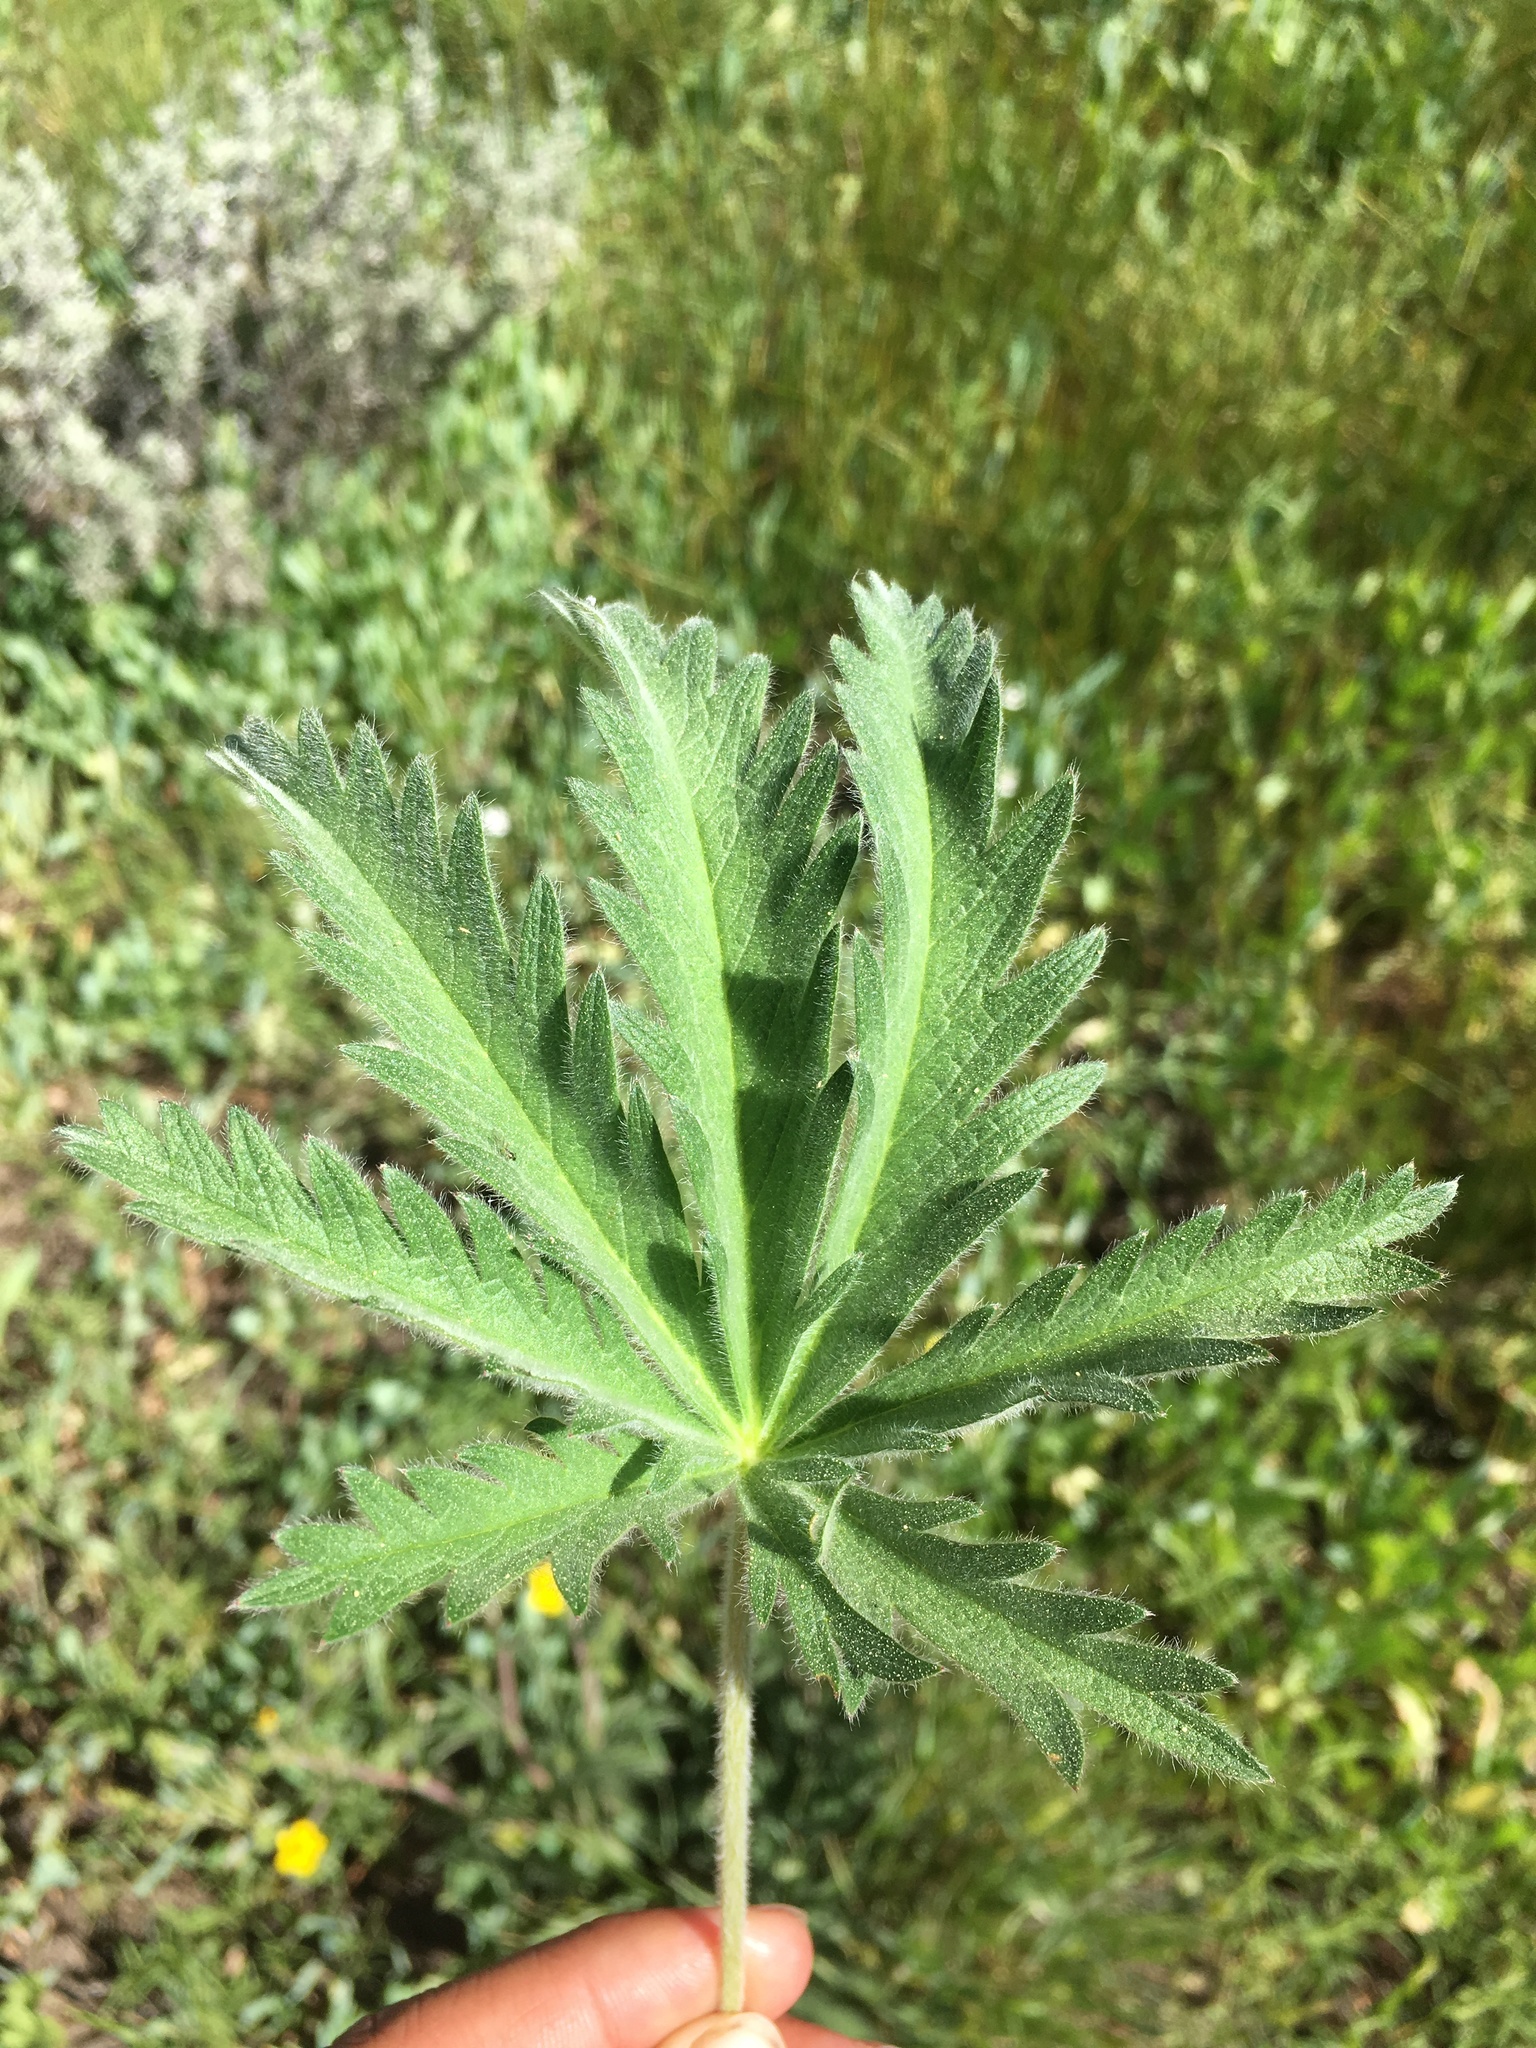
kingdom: Plantae
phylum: Tracheophyta
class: Magnoliopsida
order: Rosales
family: Rosaceae
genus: Potentilla
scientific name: Potentilla gracilis
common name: Graceful cinquefoil
